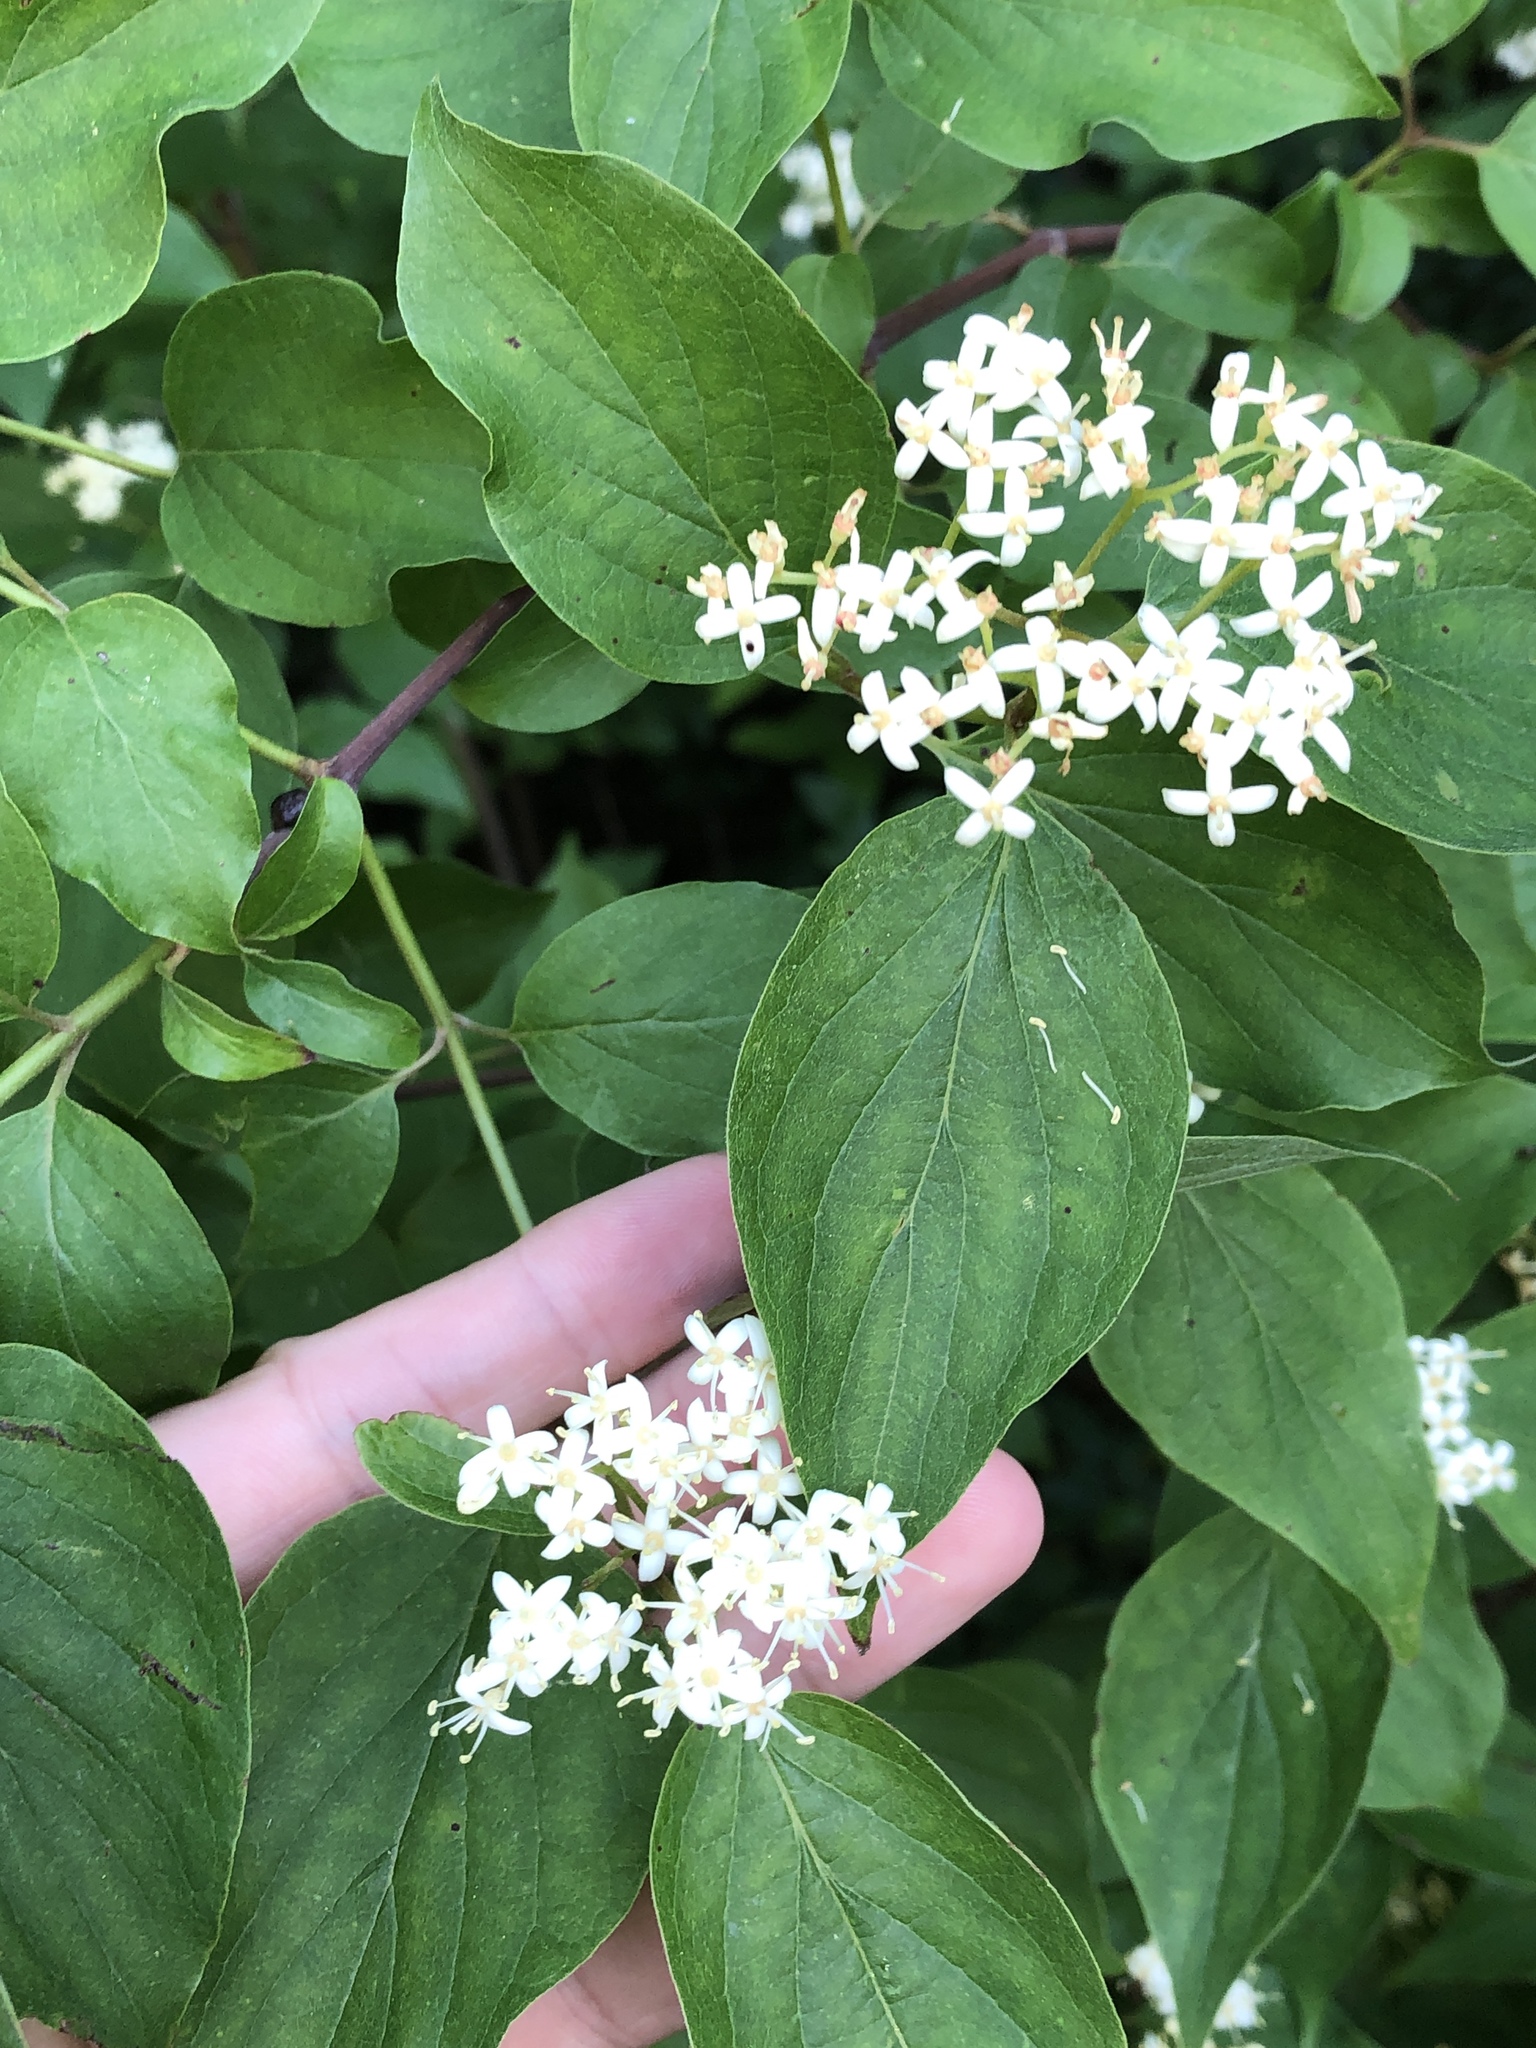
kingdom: Plantae
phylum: Tracheophyta
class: Magnoliopsida
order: Cornales
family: Cornaceae
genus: Cornus
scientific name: Cornus drummondii
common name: Rough-leaf dogwood
